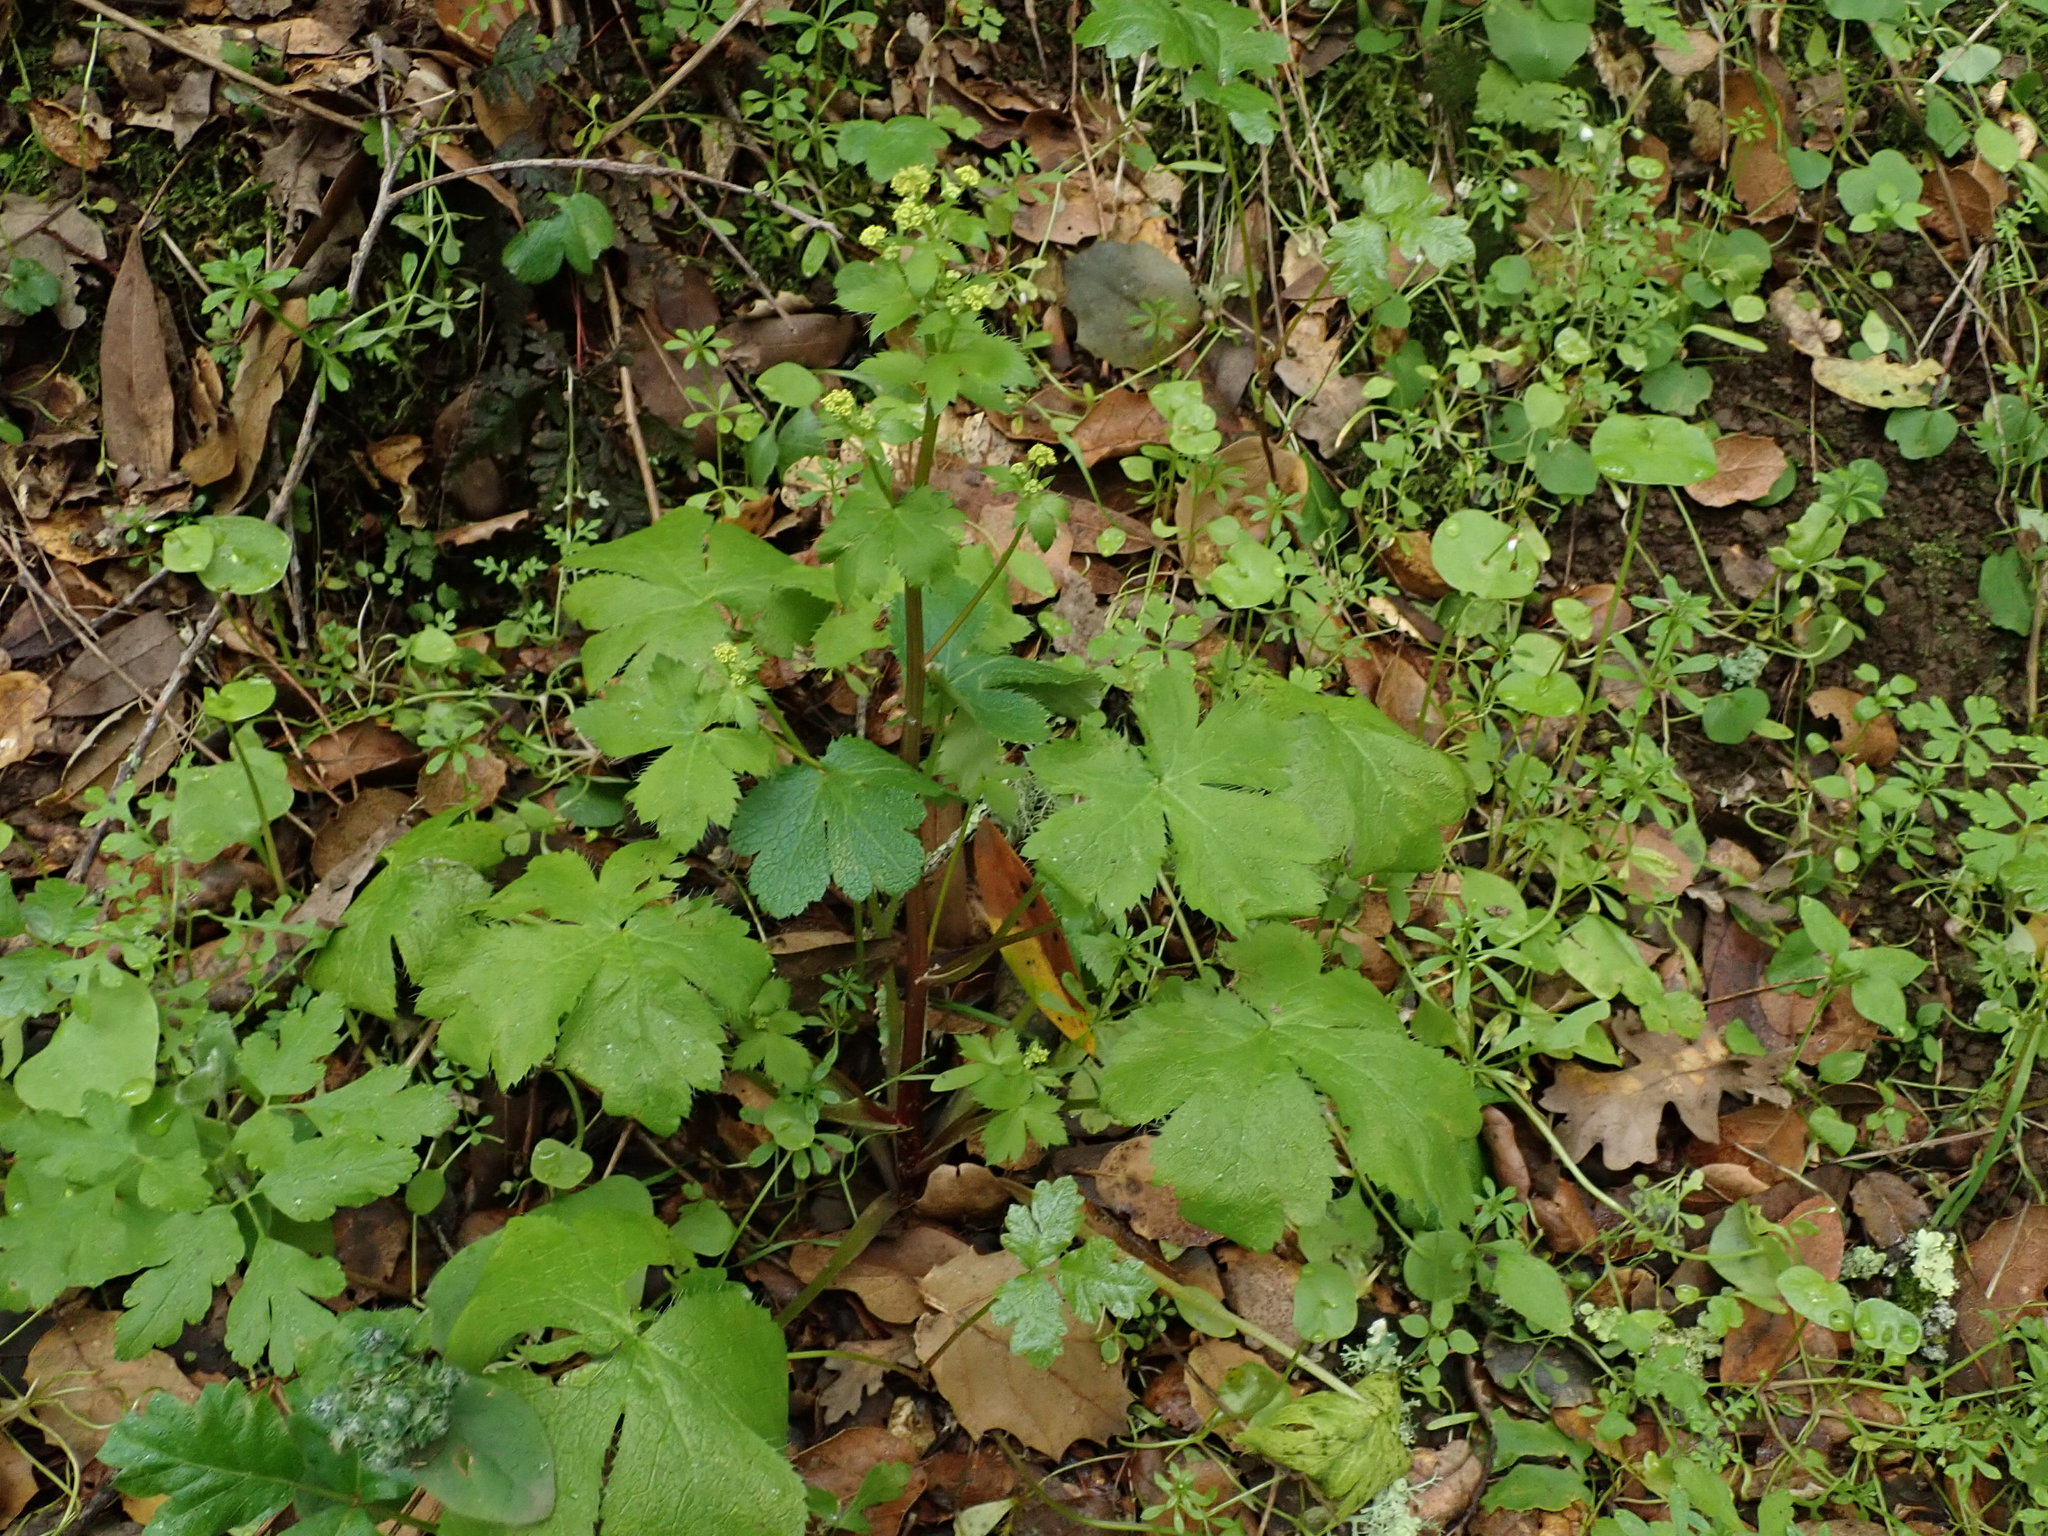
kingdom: Plantae
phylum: Tracheophyta
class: Magnoliopsida
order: Apiales
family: Apiaceae
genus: Sanicula
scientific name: Sanicula crassicaulis
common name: Western snakeroot
